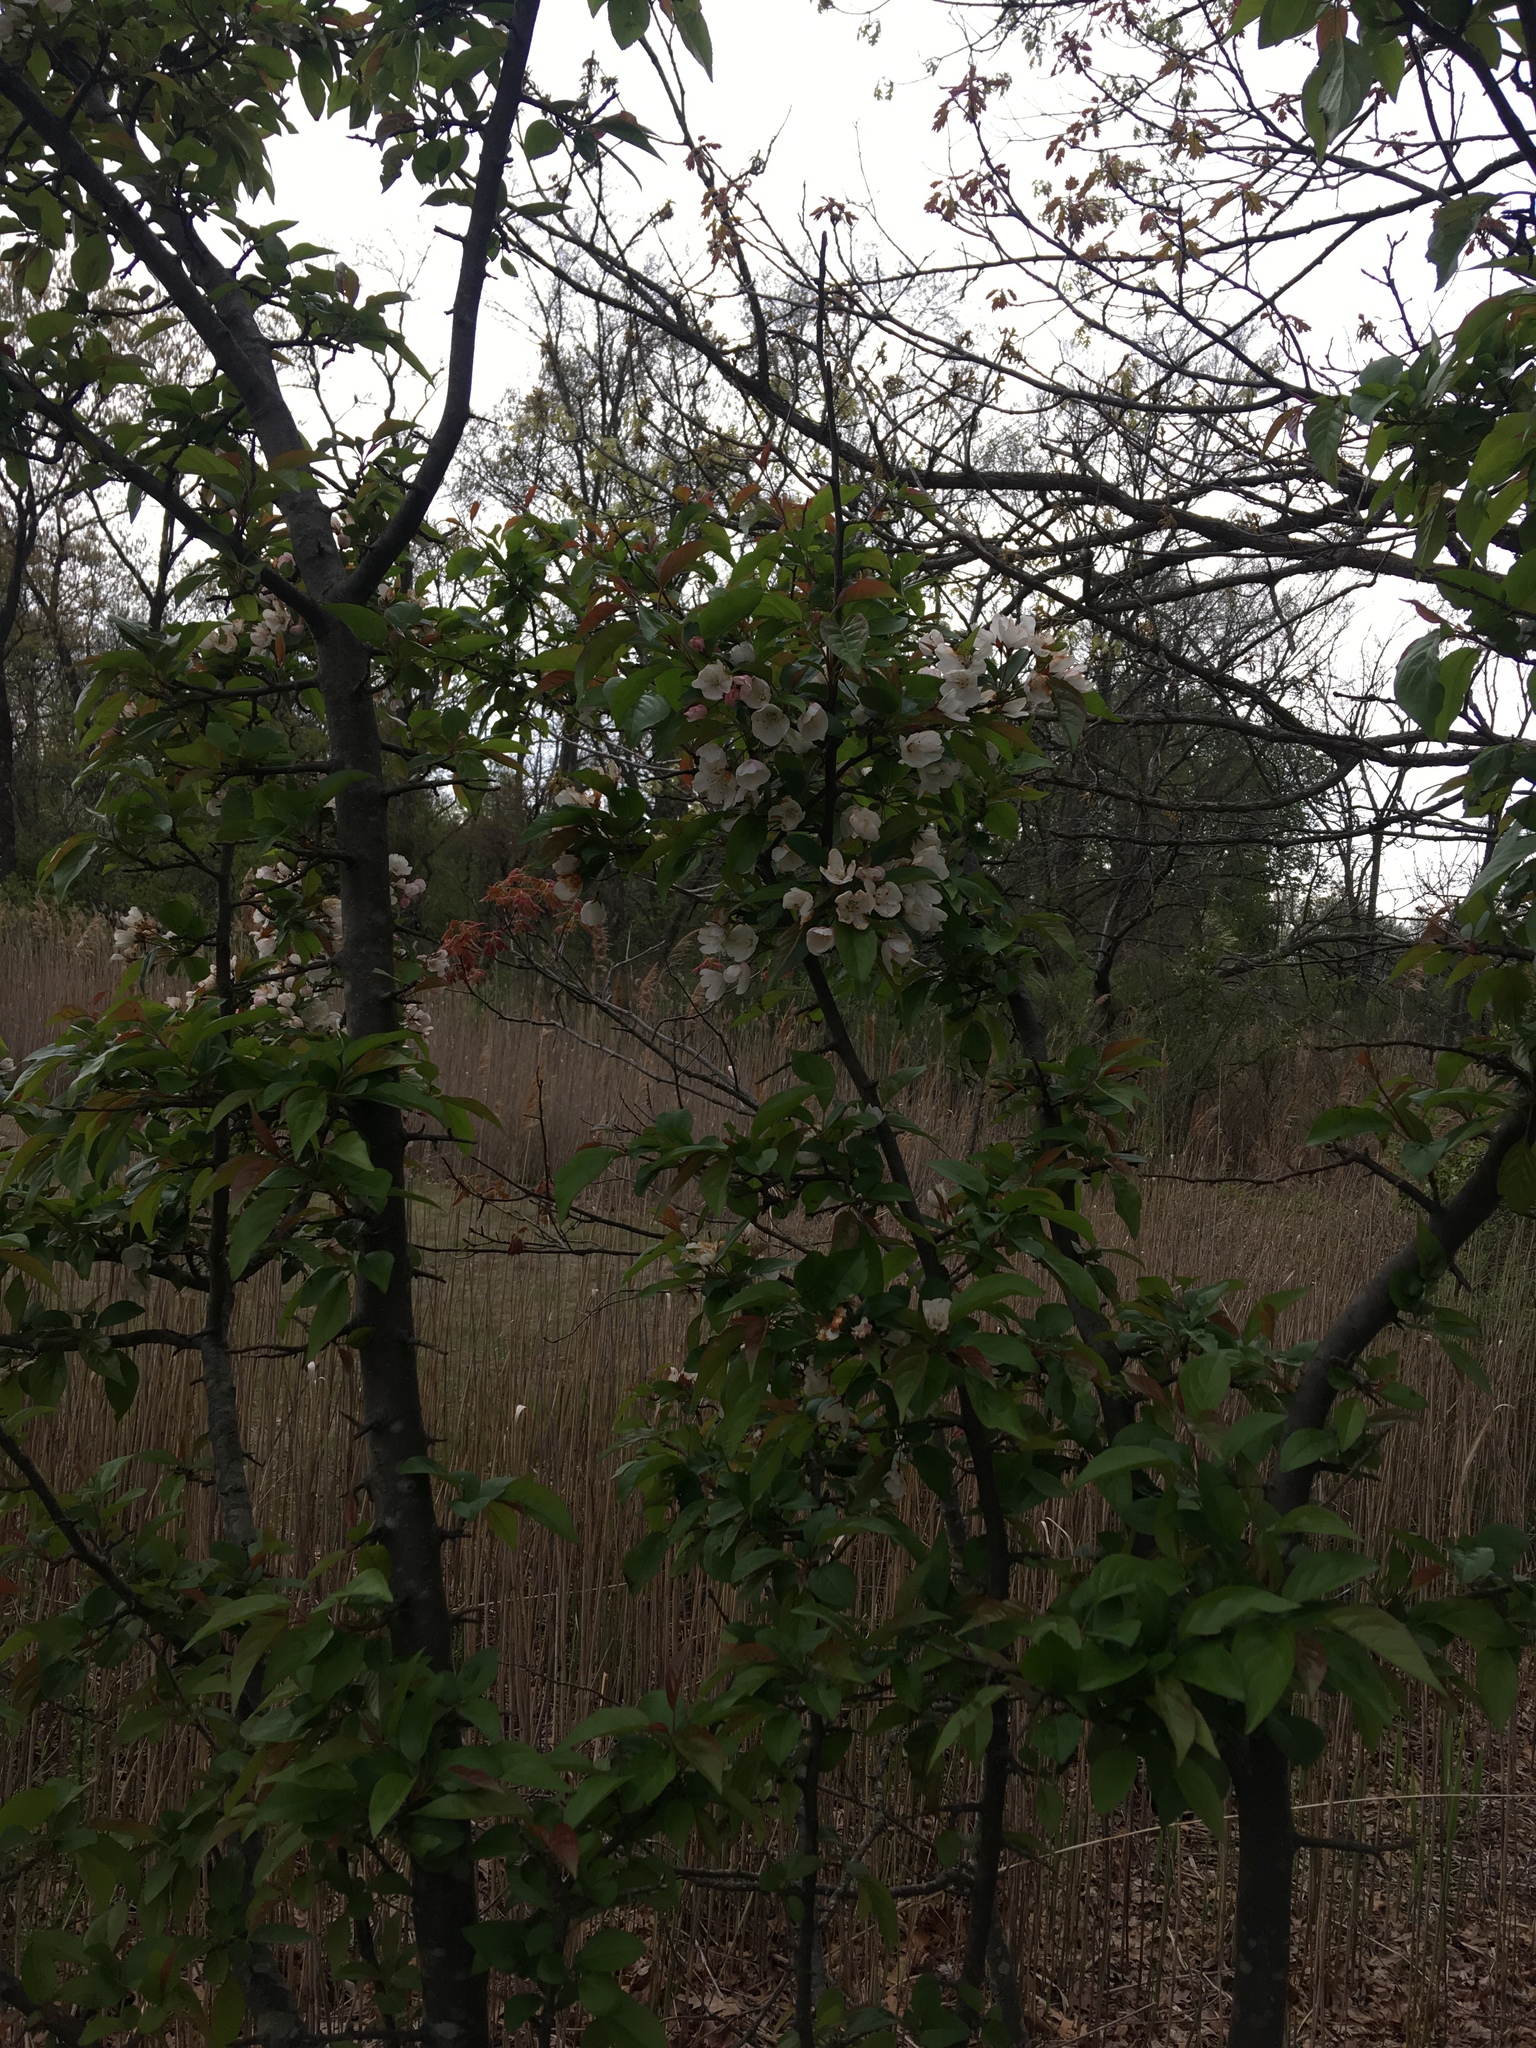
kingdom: Plantae
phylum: Tracheophyta
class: Magnoliopsida
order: Rosales
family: Rosaceae
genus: Malus
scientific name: Malus hupehensis
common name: Chinese crab apple
